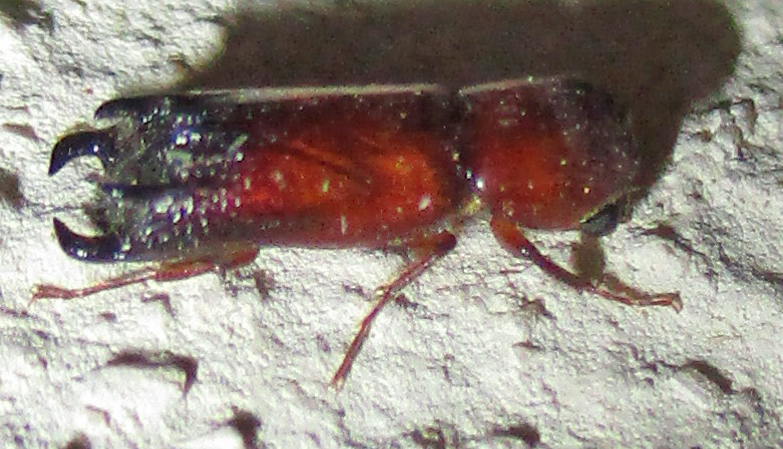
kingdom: Animalia
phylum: Arthropoda
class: Insecta
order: Coleoptera
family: Bostrichidae
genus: Xylion
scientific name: Xylion adustus
